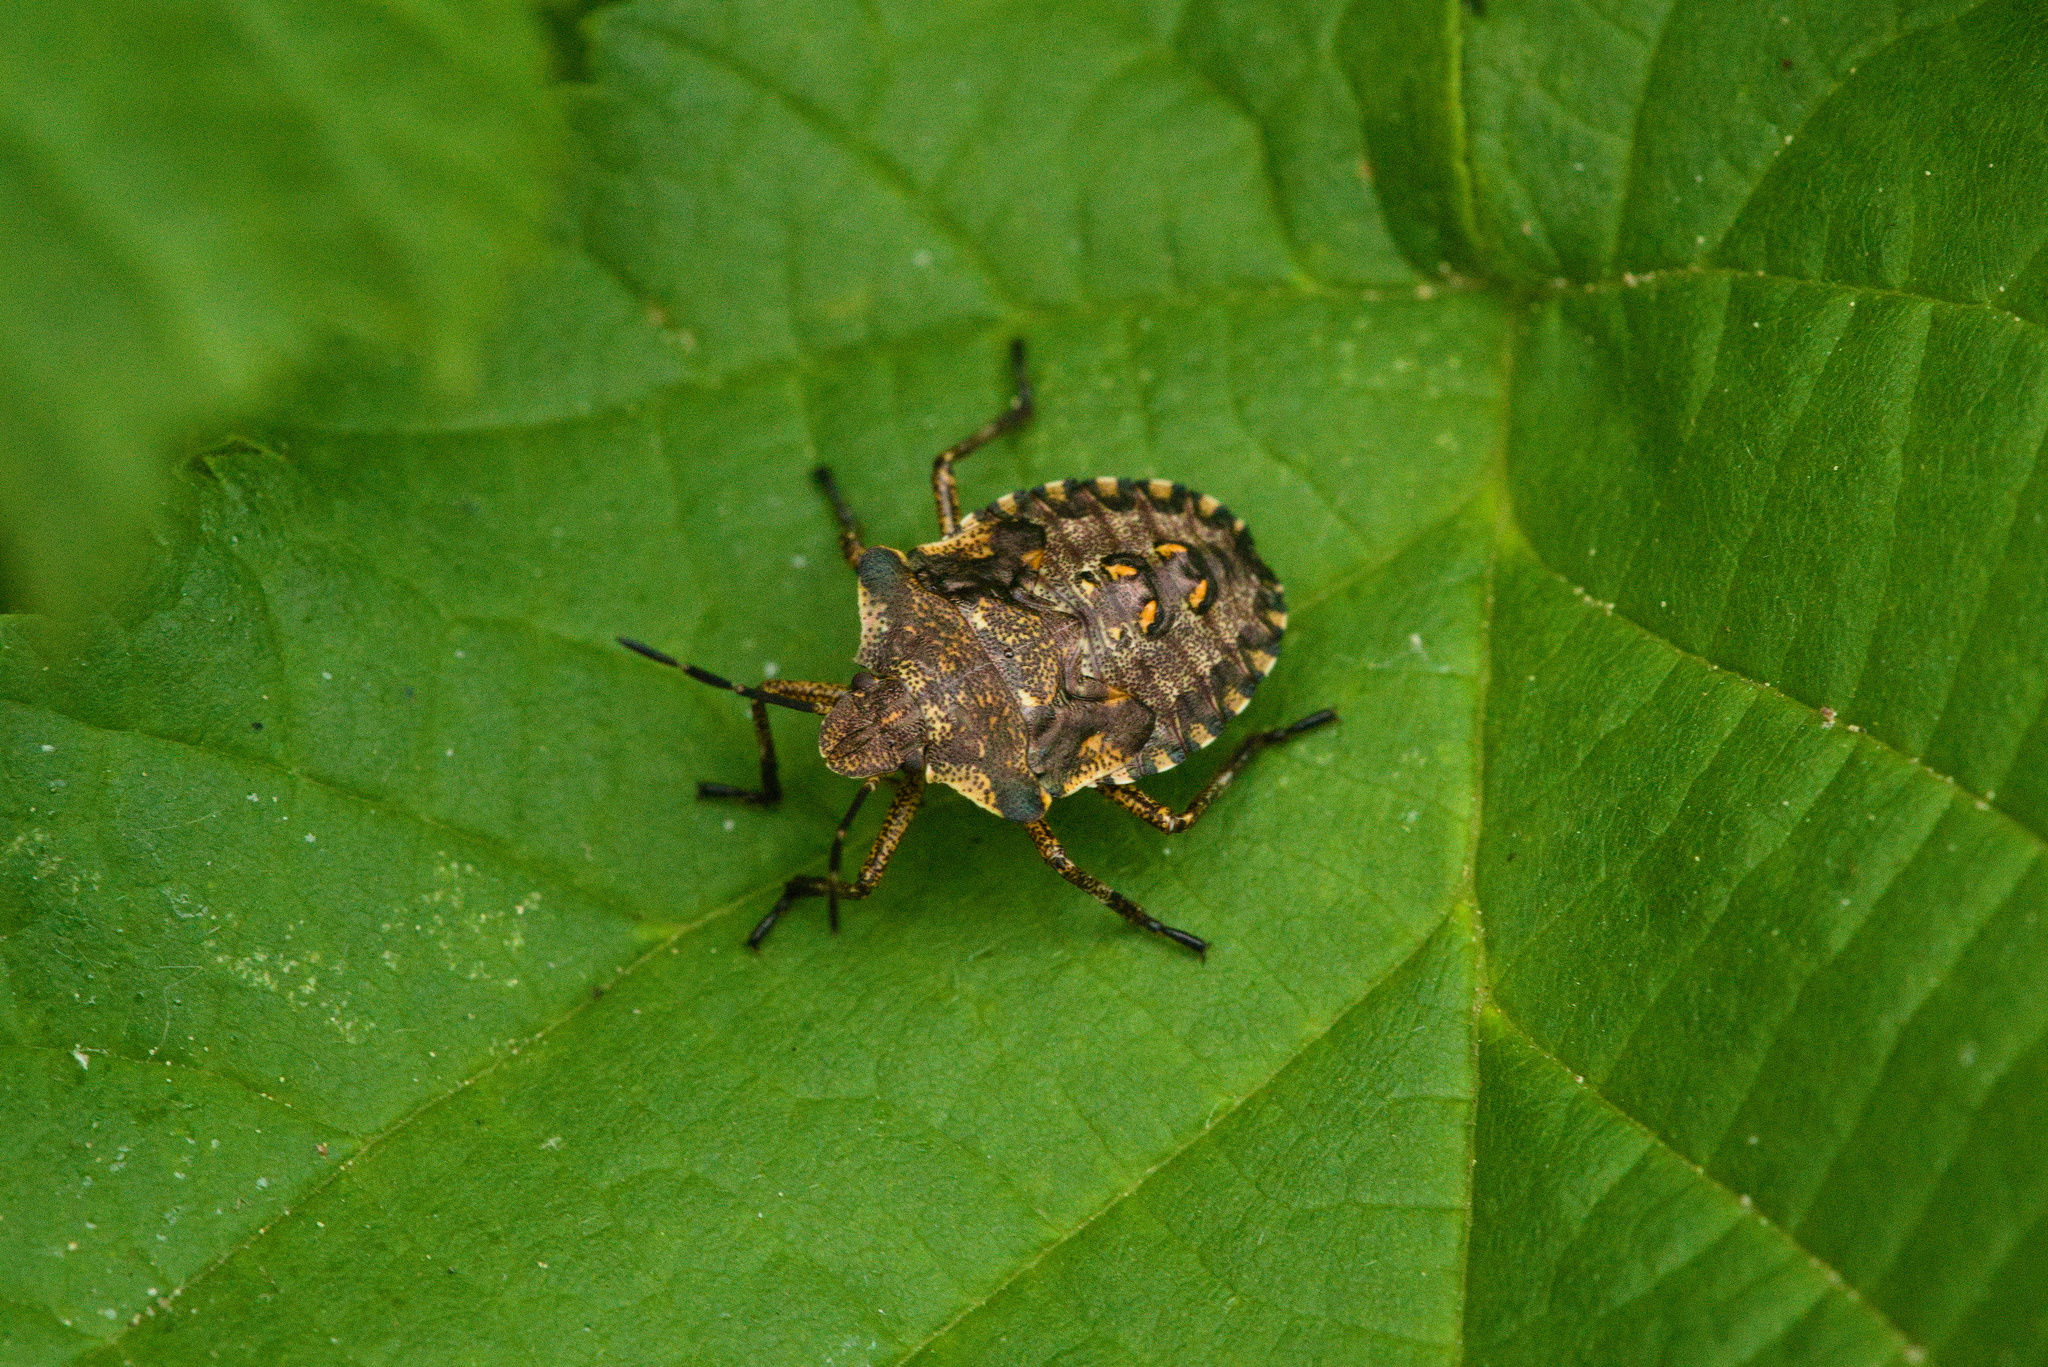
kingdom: Animalia
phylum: Arthropoda
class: Insecta
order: Hemiptera
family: Pentatomidae
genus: Pentatoma
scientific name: Pentatoma rufipes
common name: Forest bug
